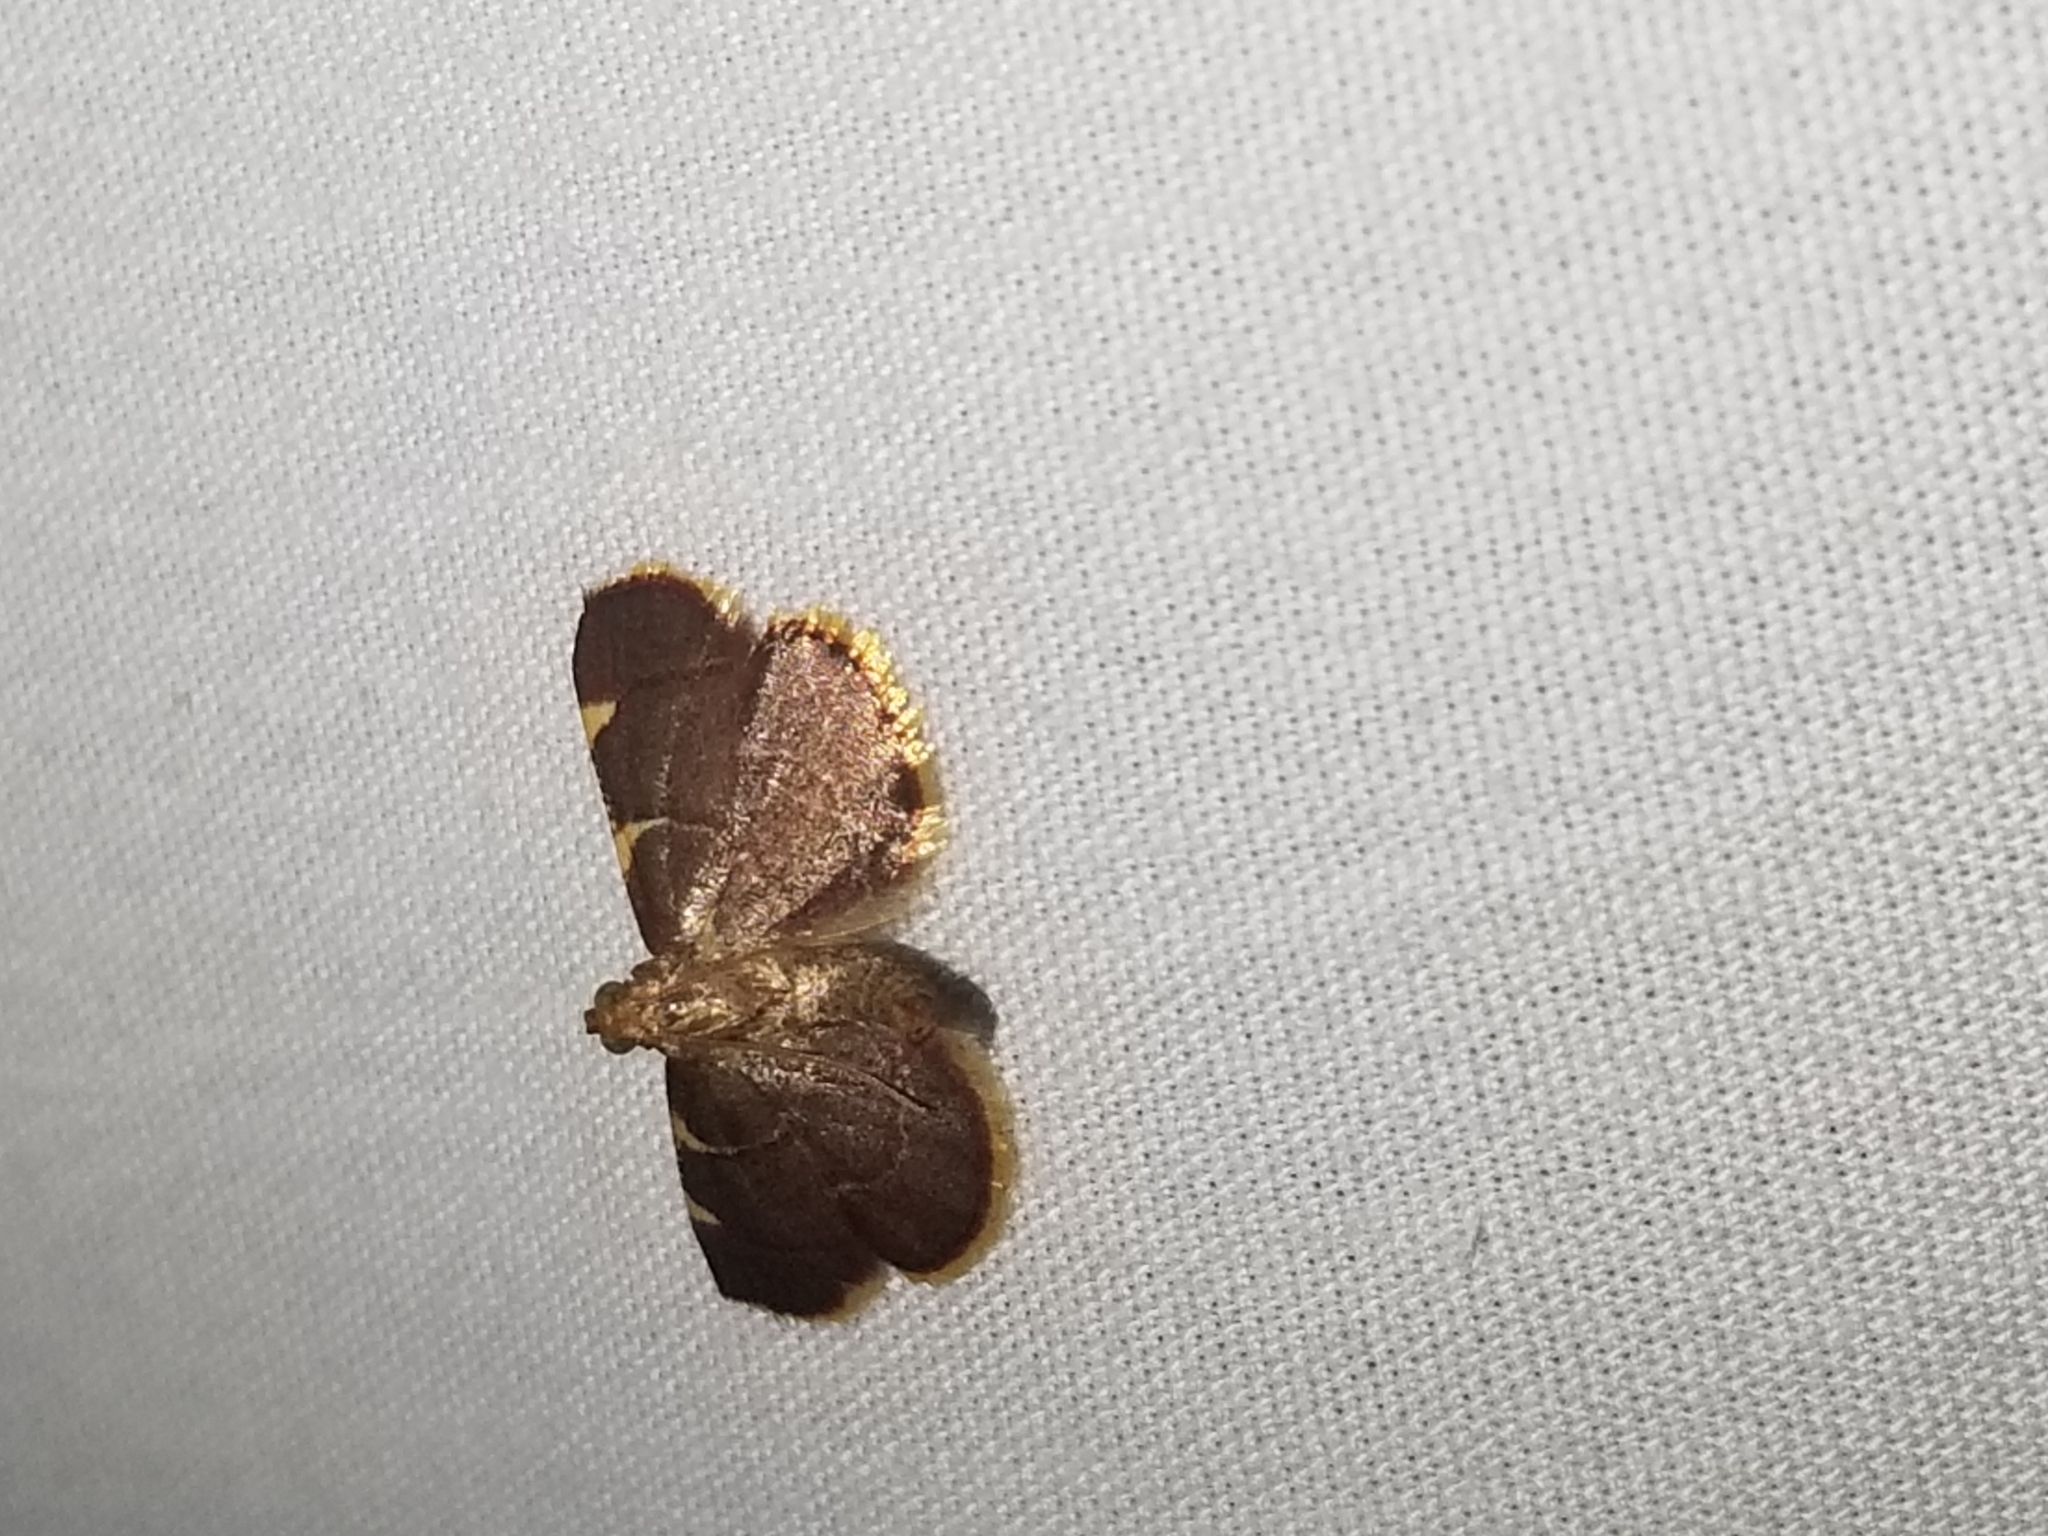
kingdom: Animalia
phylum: Arthropoda
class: Insecta
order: Lepidoptera
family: Pyralidae
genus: Hypsopygia
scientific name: Hypsopygia olinalis
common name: Yellow-fringed dolichomia moth
